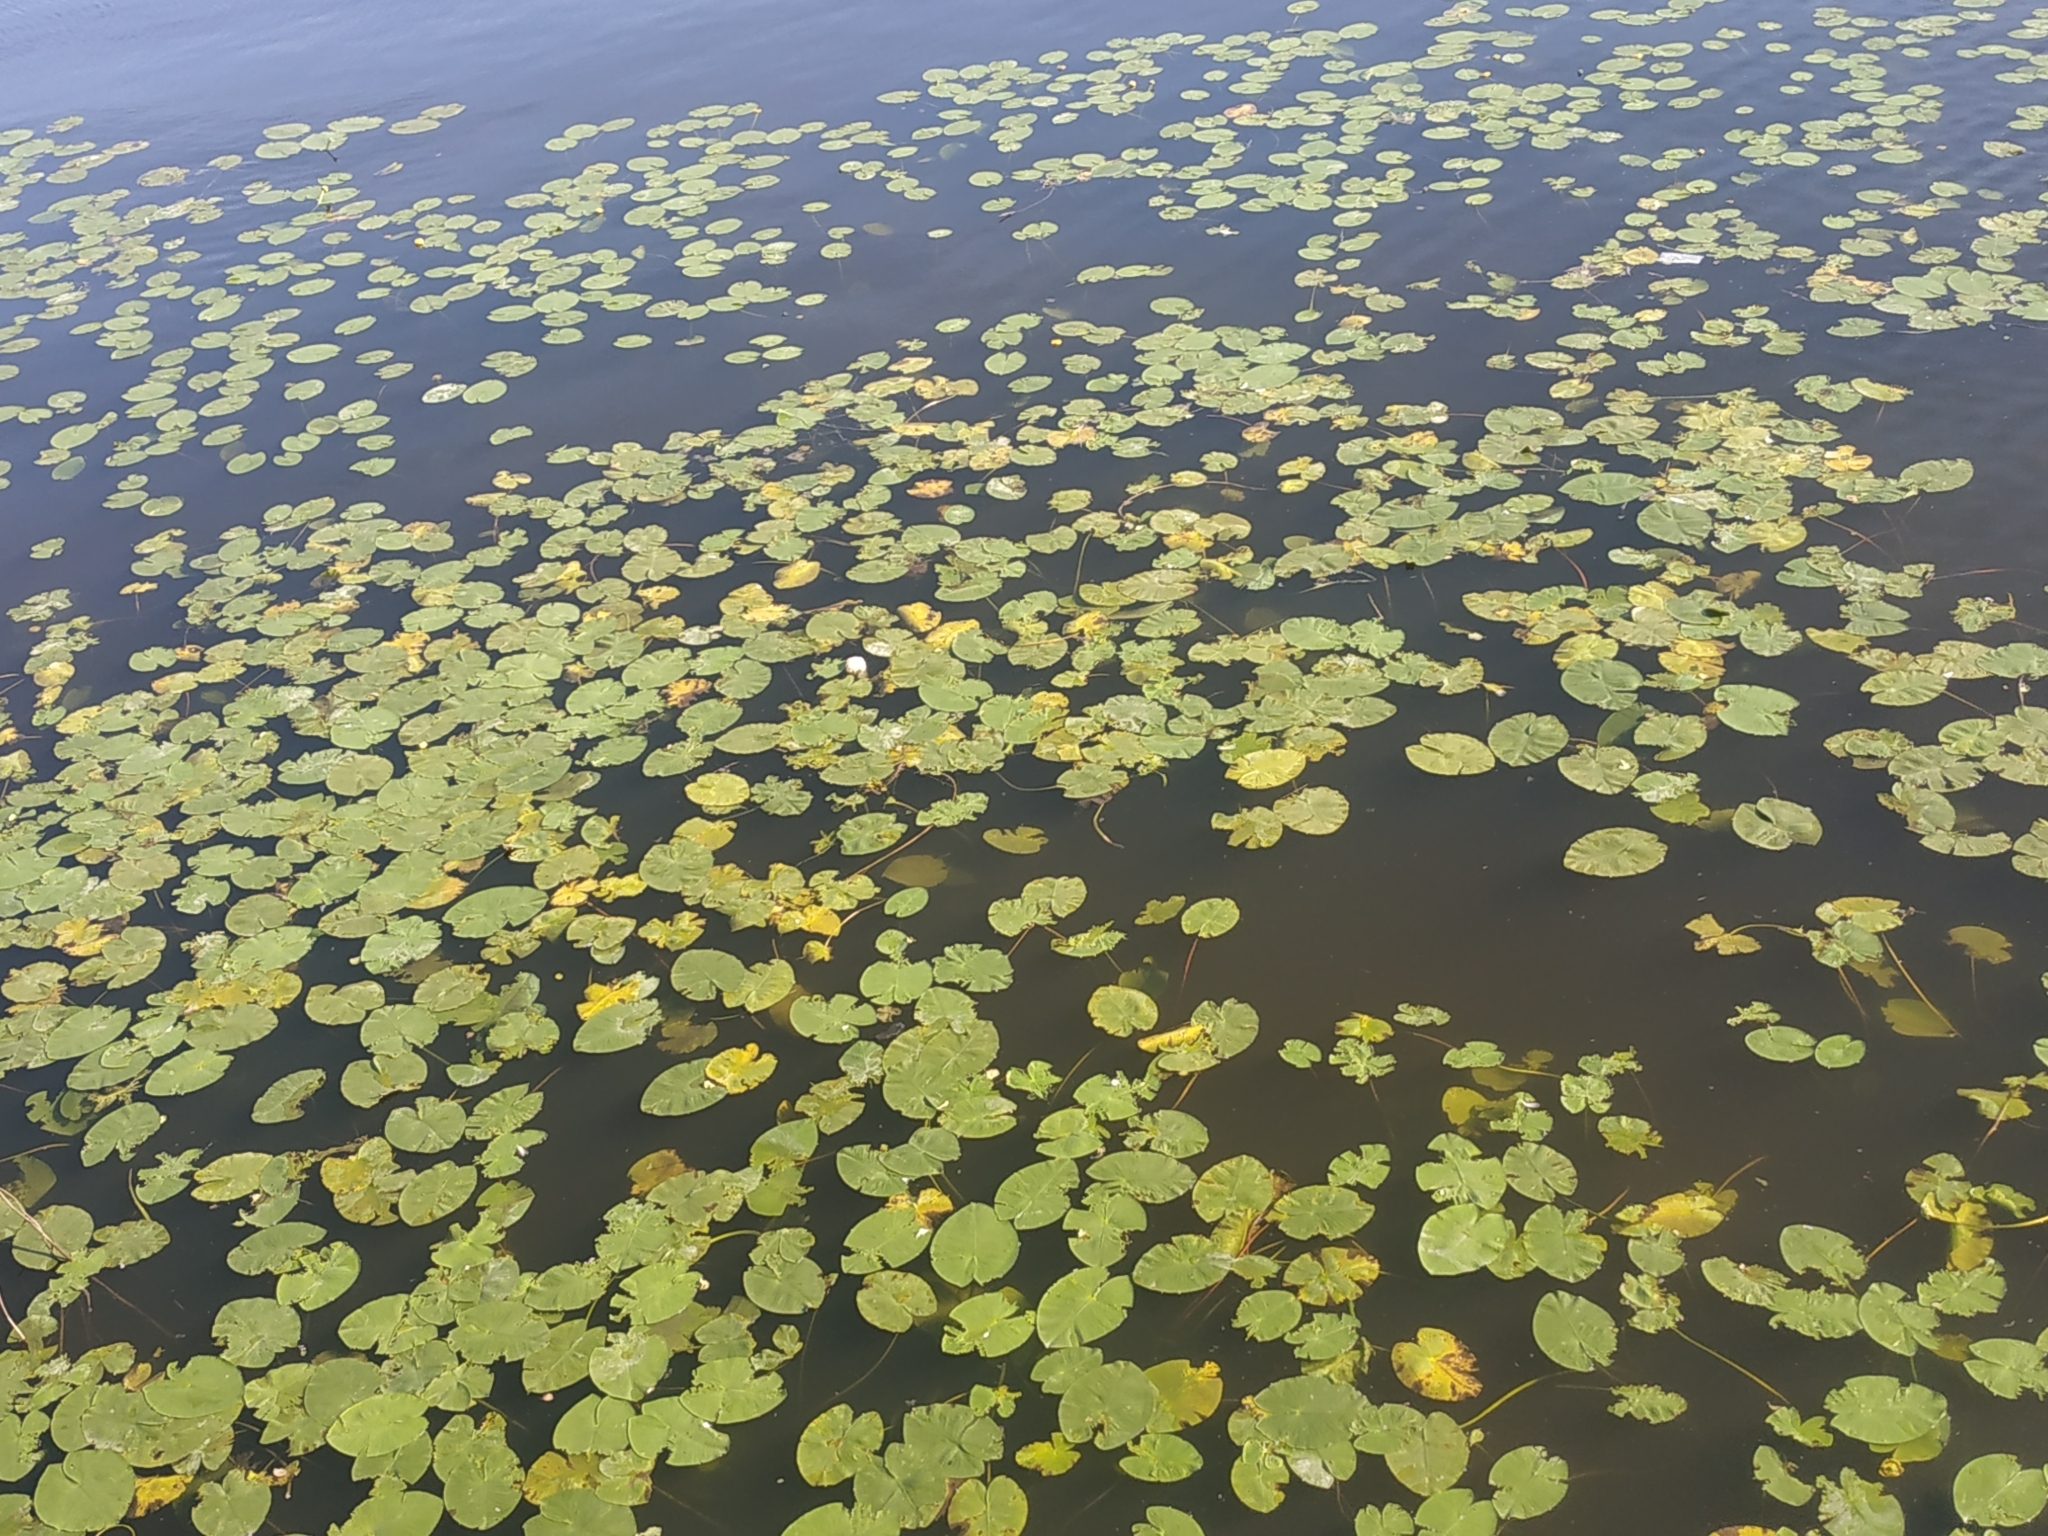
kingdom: Plantae
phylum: Tracheophyta
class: Magnoliopsida
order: Nymphaeales
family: Nymphaeaceae
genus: Nuphar
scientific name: Nuphar lutea
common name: Yellow water-lily
